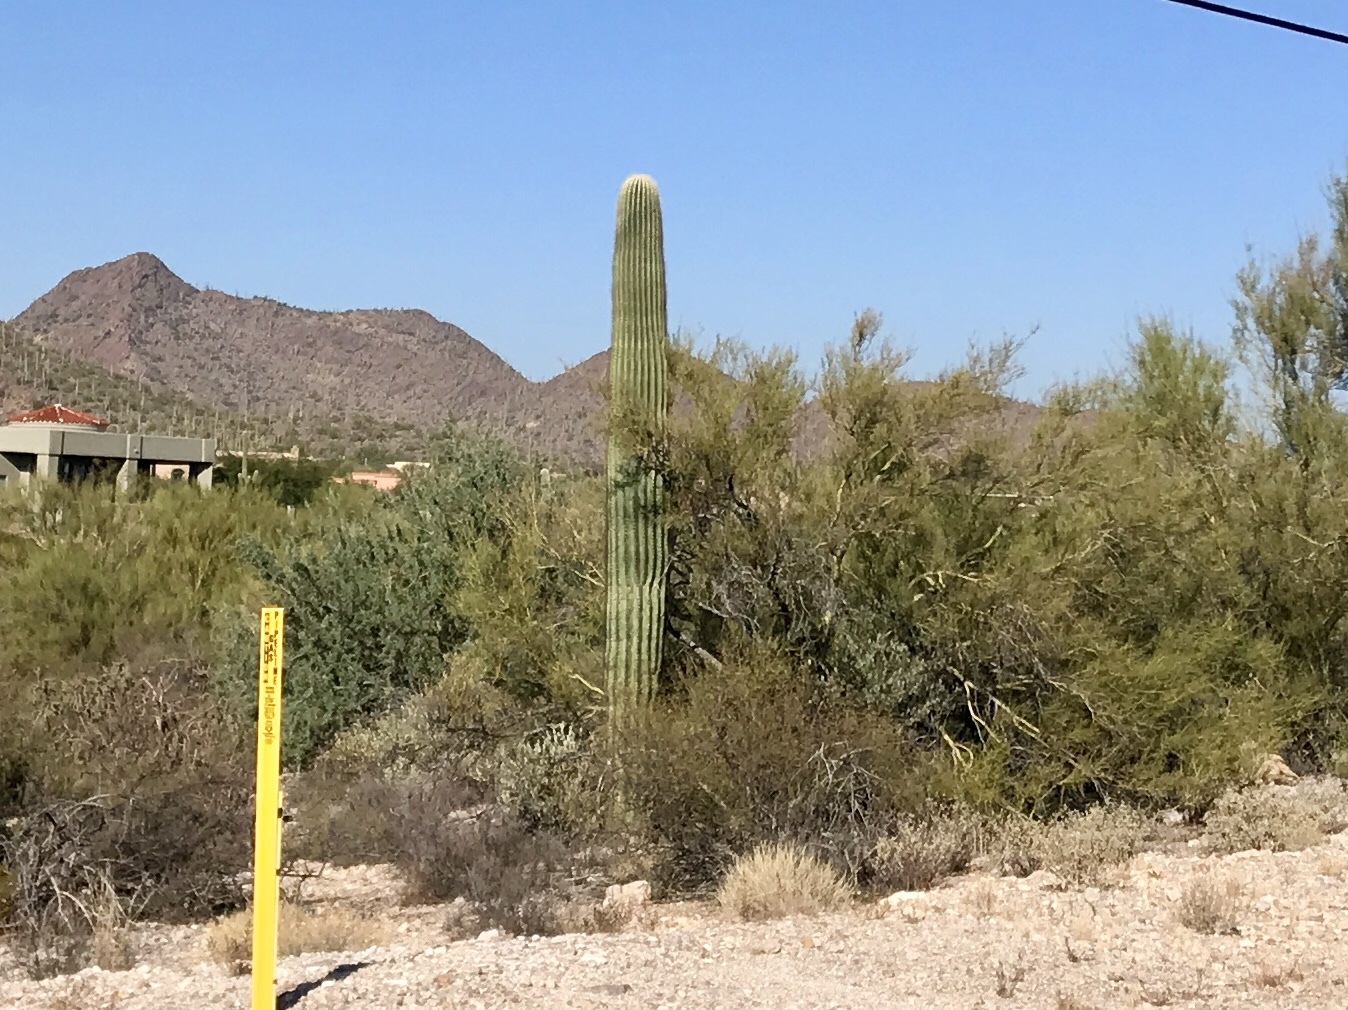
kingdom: Plantae
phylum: Tracheophyta
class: Magnoliopsida
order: Caryophyllales
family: Cactaceae
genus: Carnegiea
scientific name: Carnegiea gigantea
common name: Saguaro
